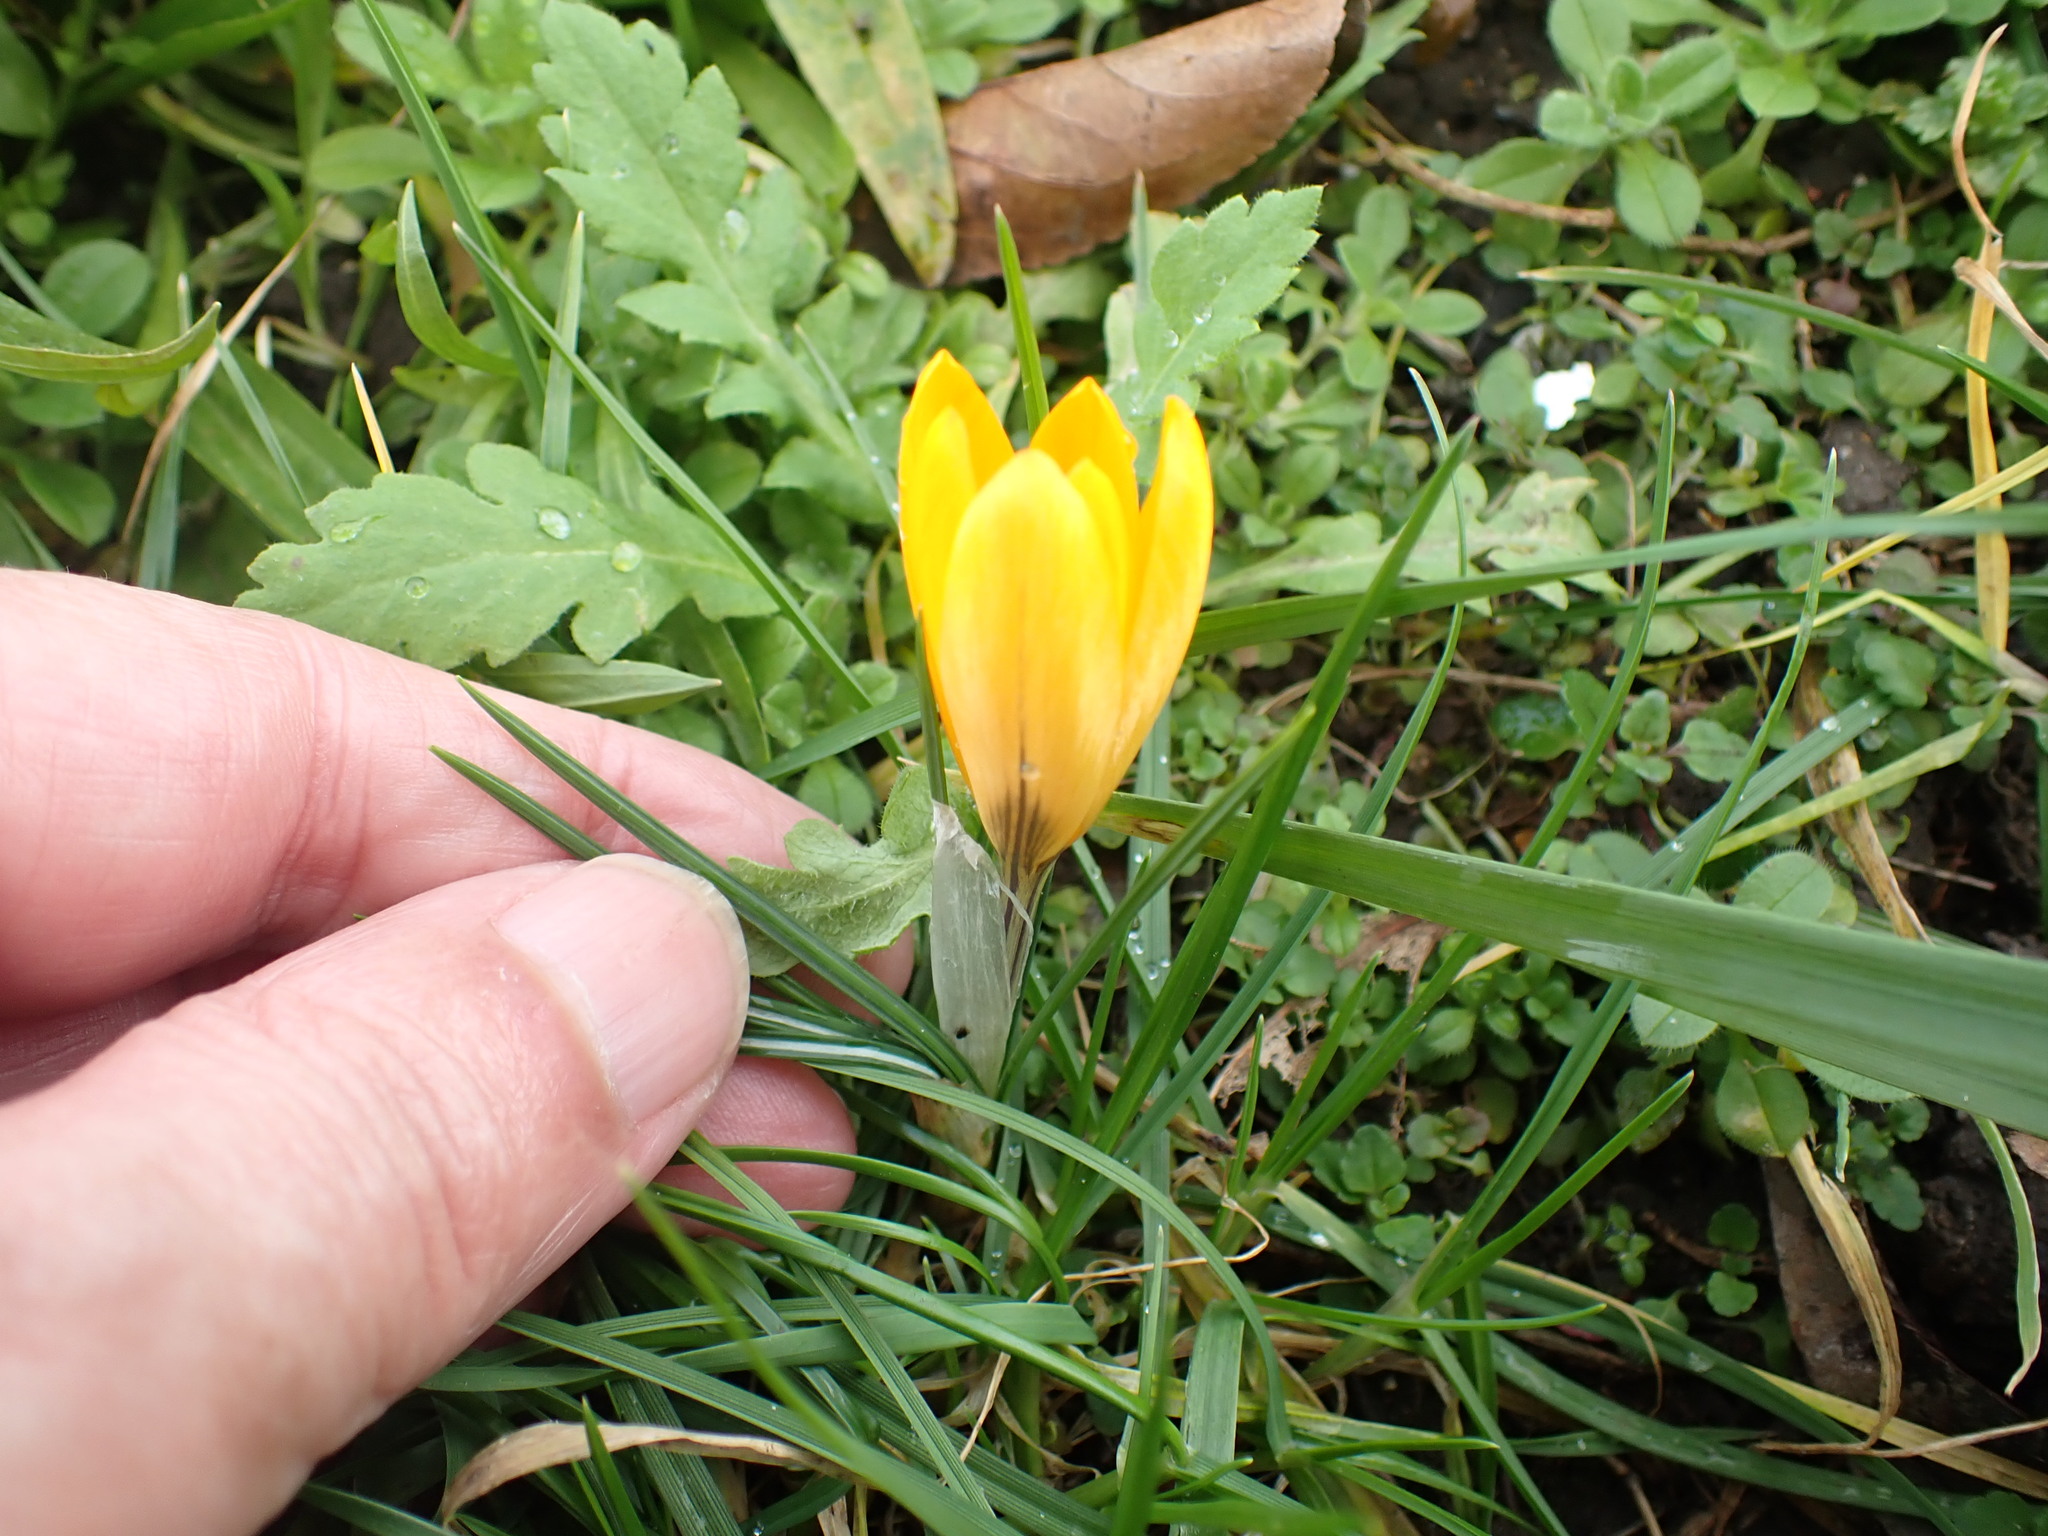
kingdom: Plantae
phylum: Tracheophyta
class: Liliopsida
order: Asparagales
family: Iridaceae
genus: Crocus
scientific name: Crocus luteus
